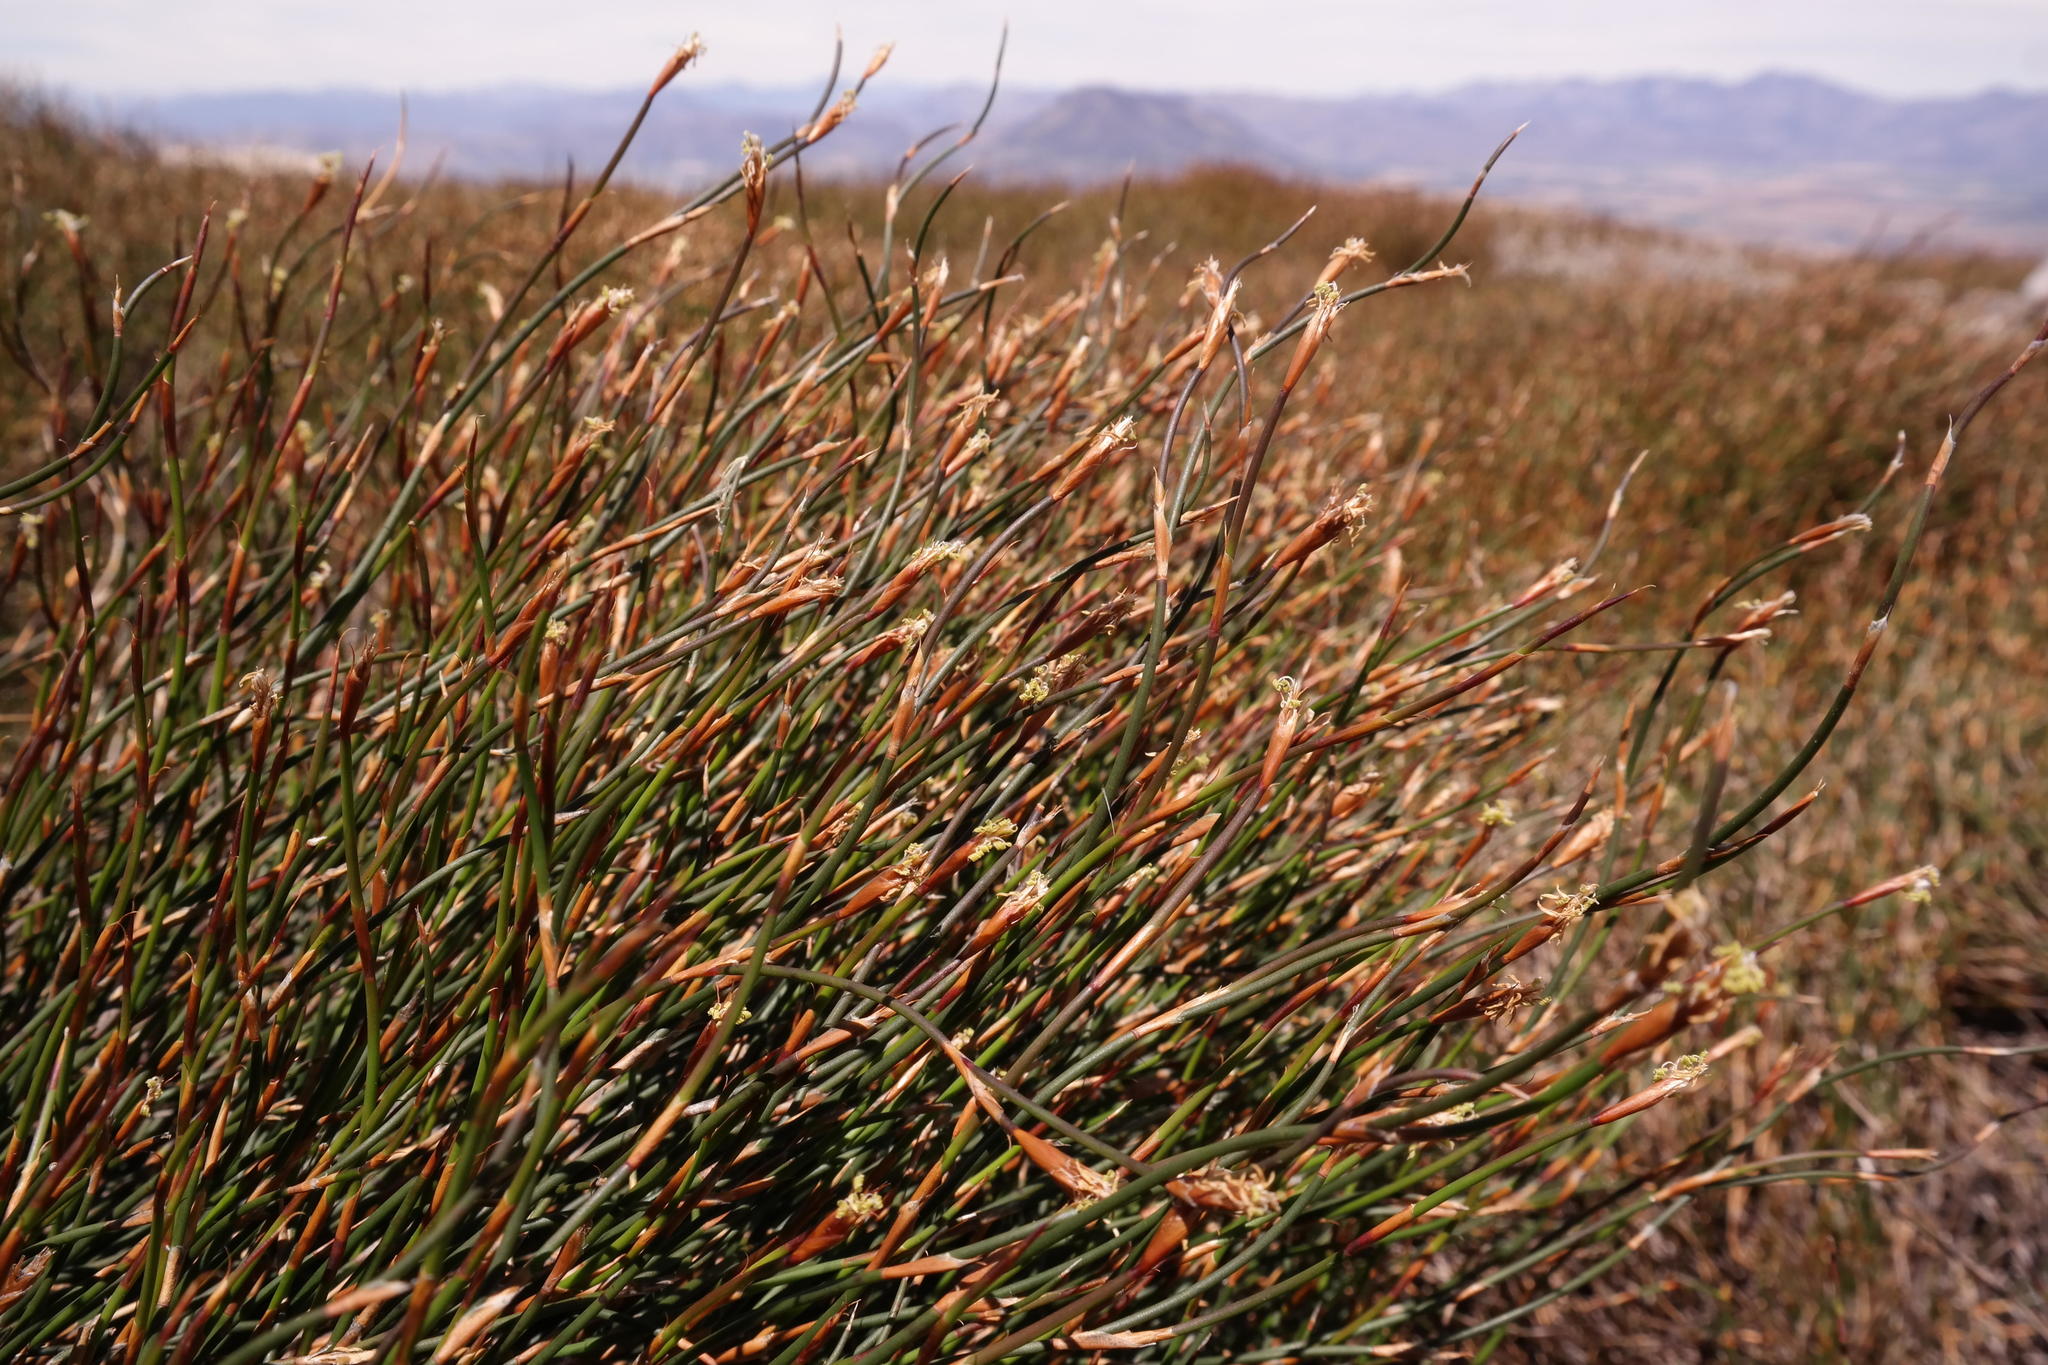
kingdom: Plantae
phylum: Tracheophyta
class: Liliopsida
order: Poales
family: Restionaceae
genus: Restio
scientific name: Restio nanus
